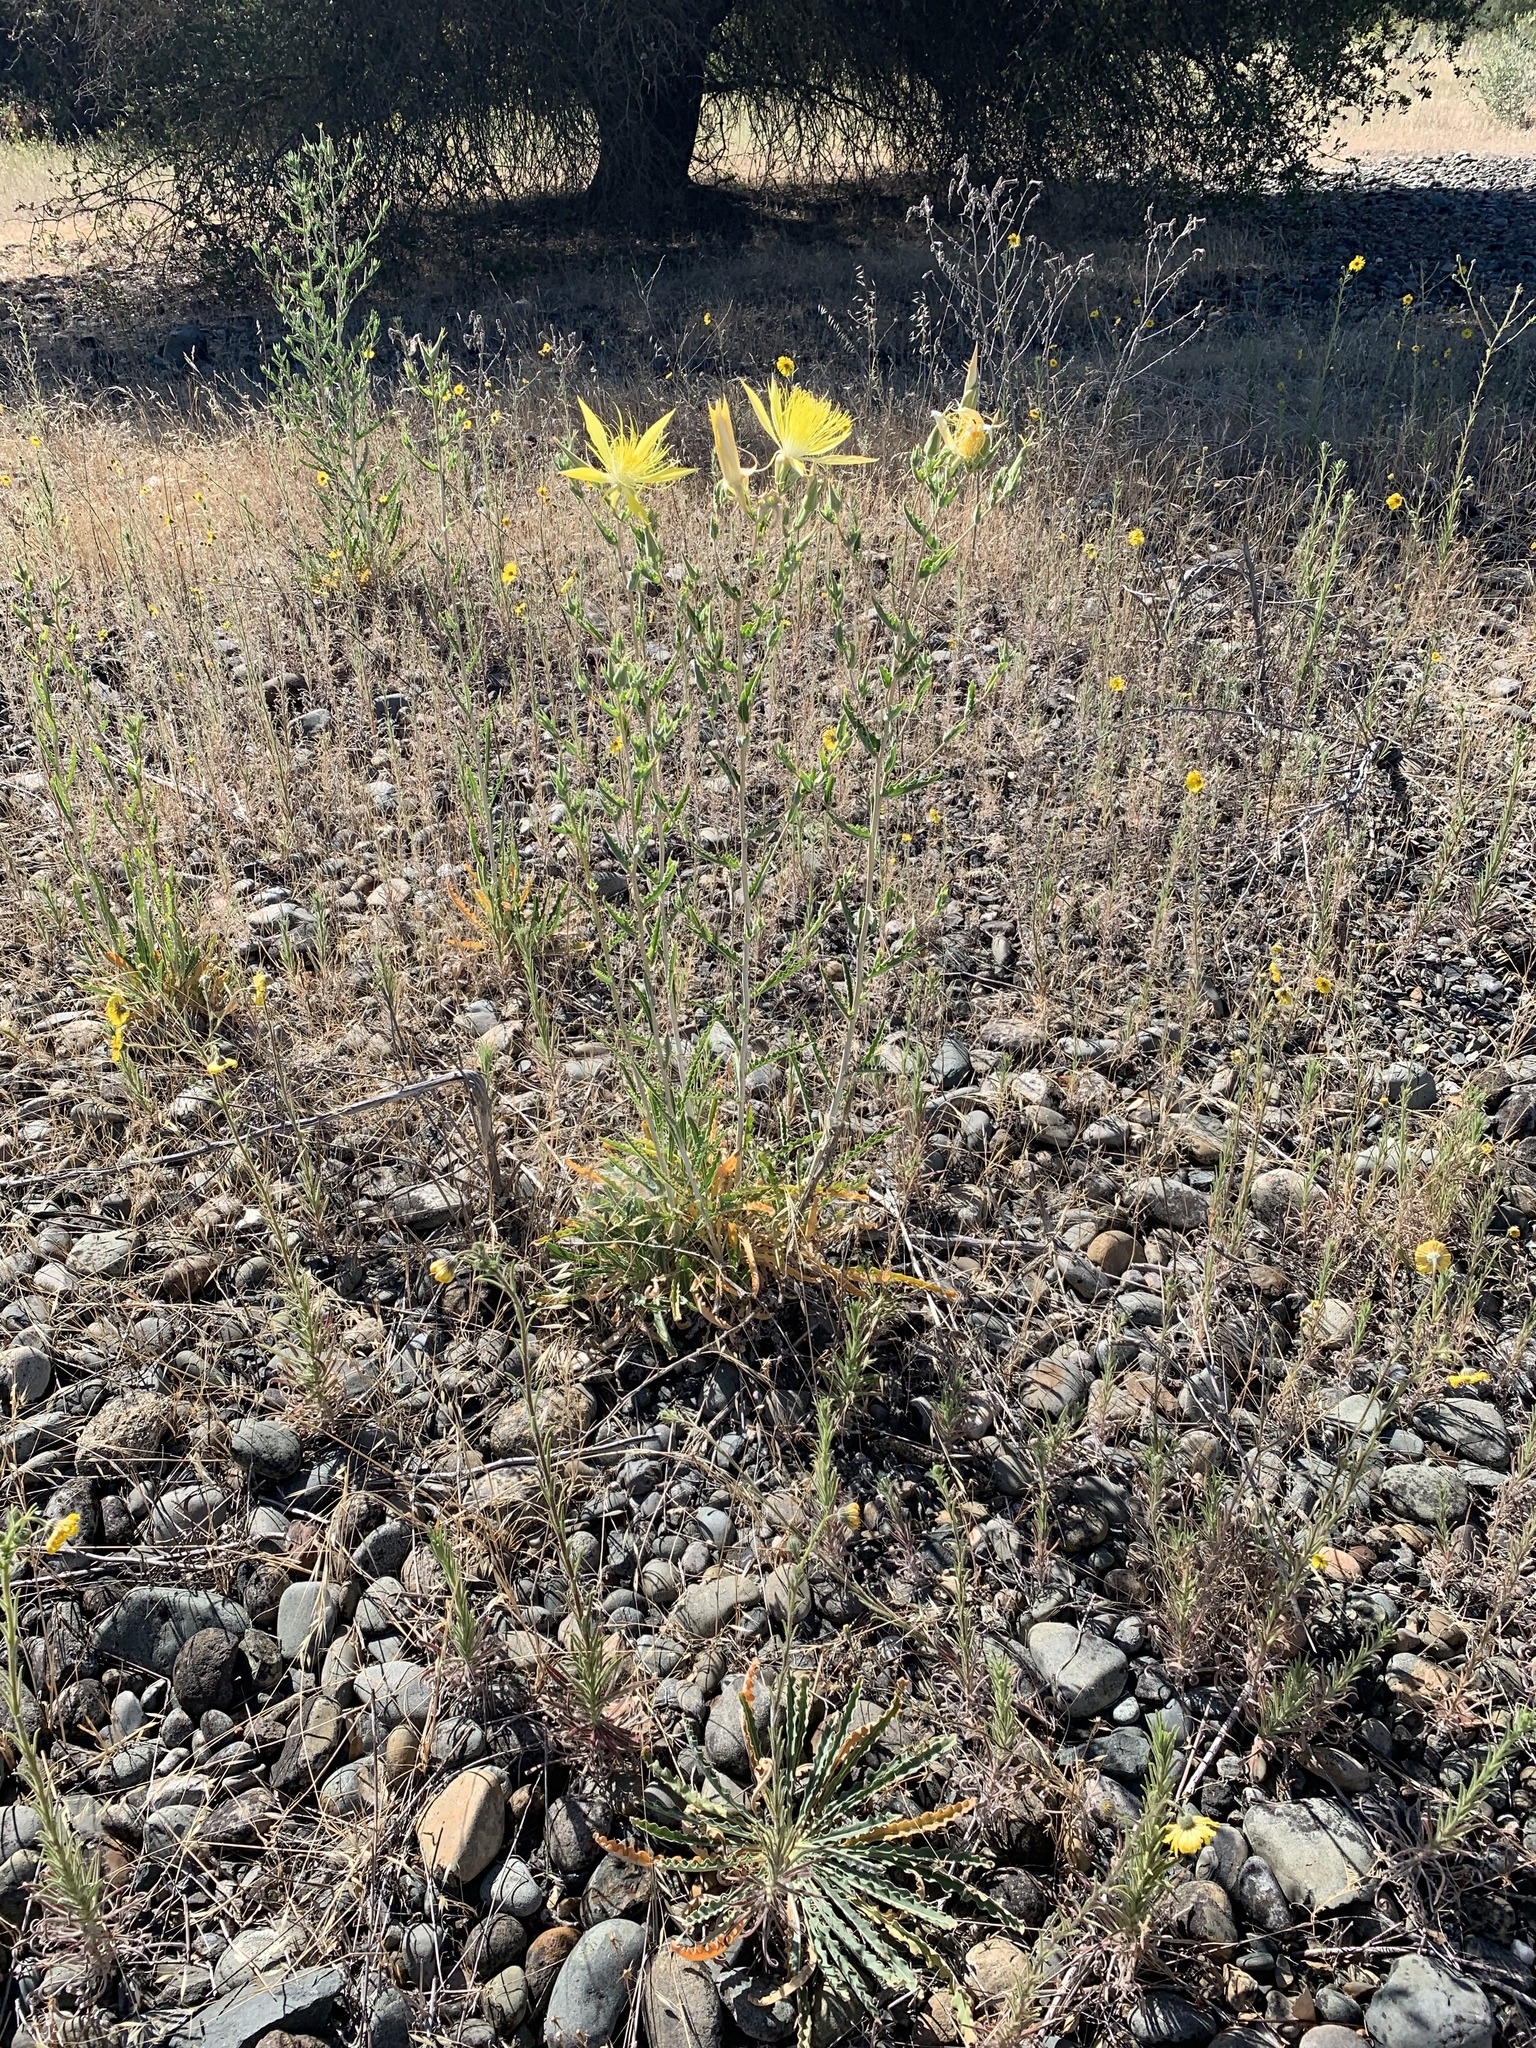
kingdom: Plantae
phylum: Tracheophyta
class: Magnoliopsida
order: Cornales
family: Loasaceae
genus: Mentzelia
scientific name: Mentzelia laevicaulis
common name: Smooth-stem blazingstar
